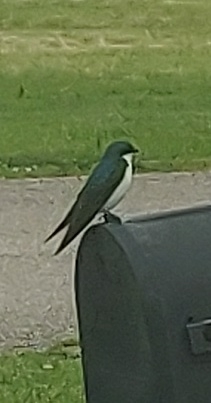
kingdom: Animalia
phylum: Chordata
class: Aves
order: Passeriformes
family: Hirundinidae
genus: Tachycineta
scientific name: Tachycineta bicolor
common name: Tree swallow
